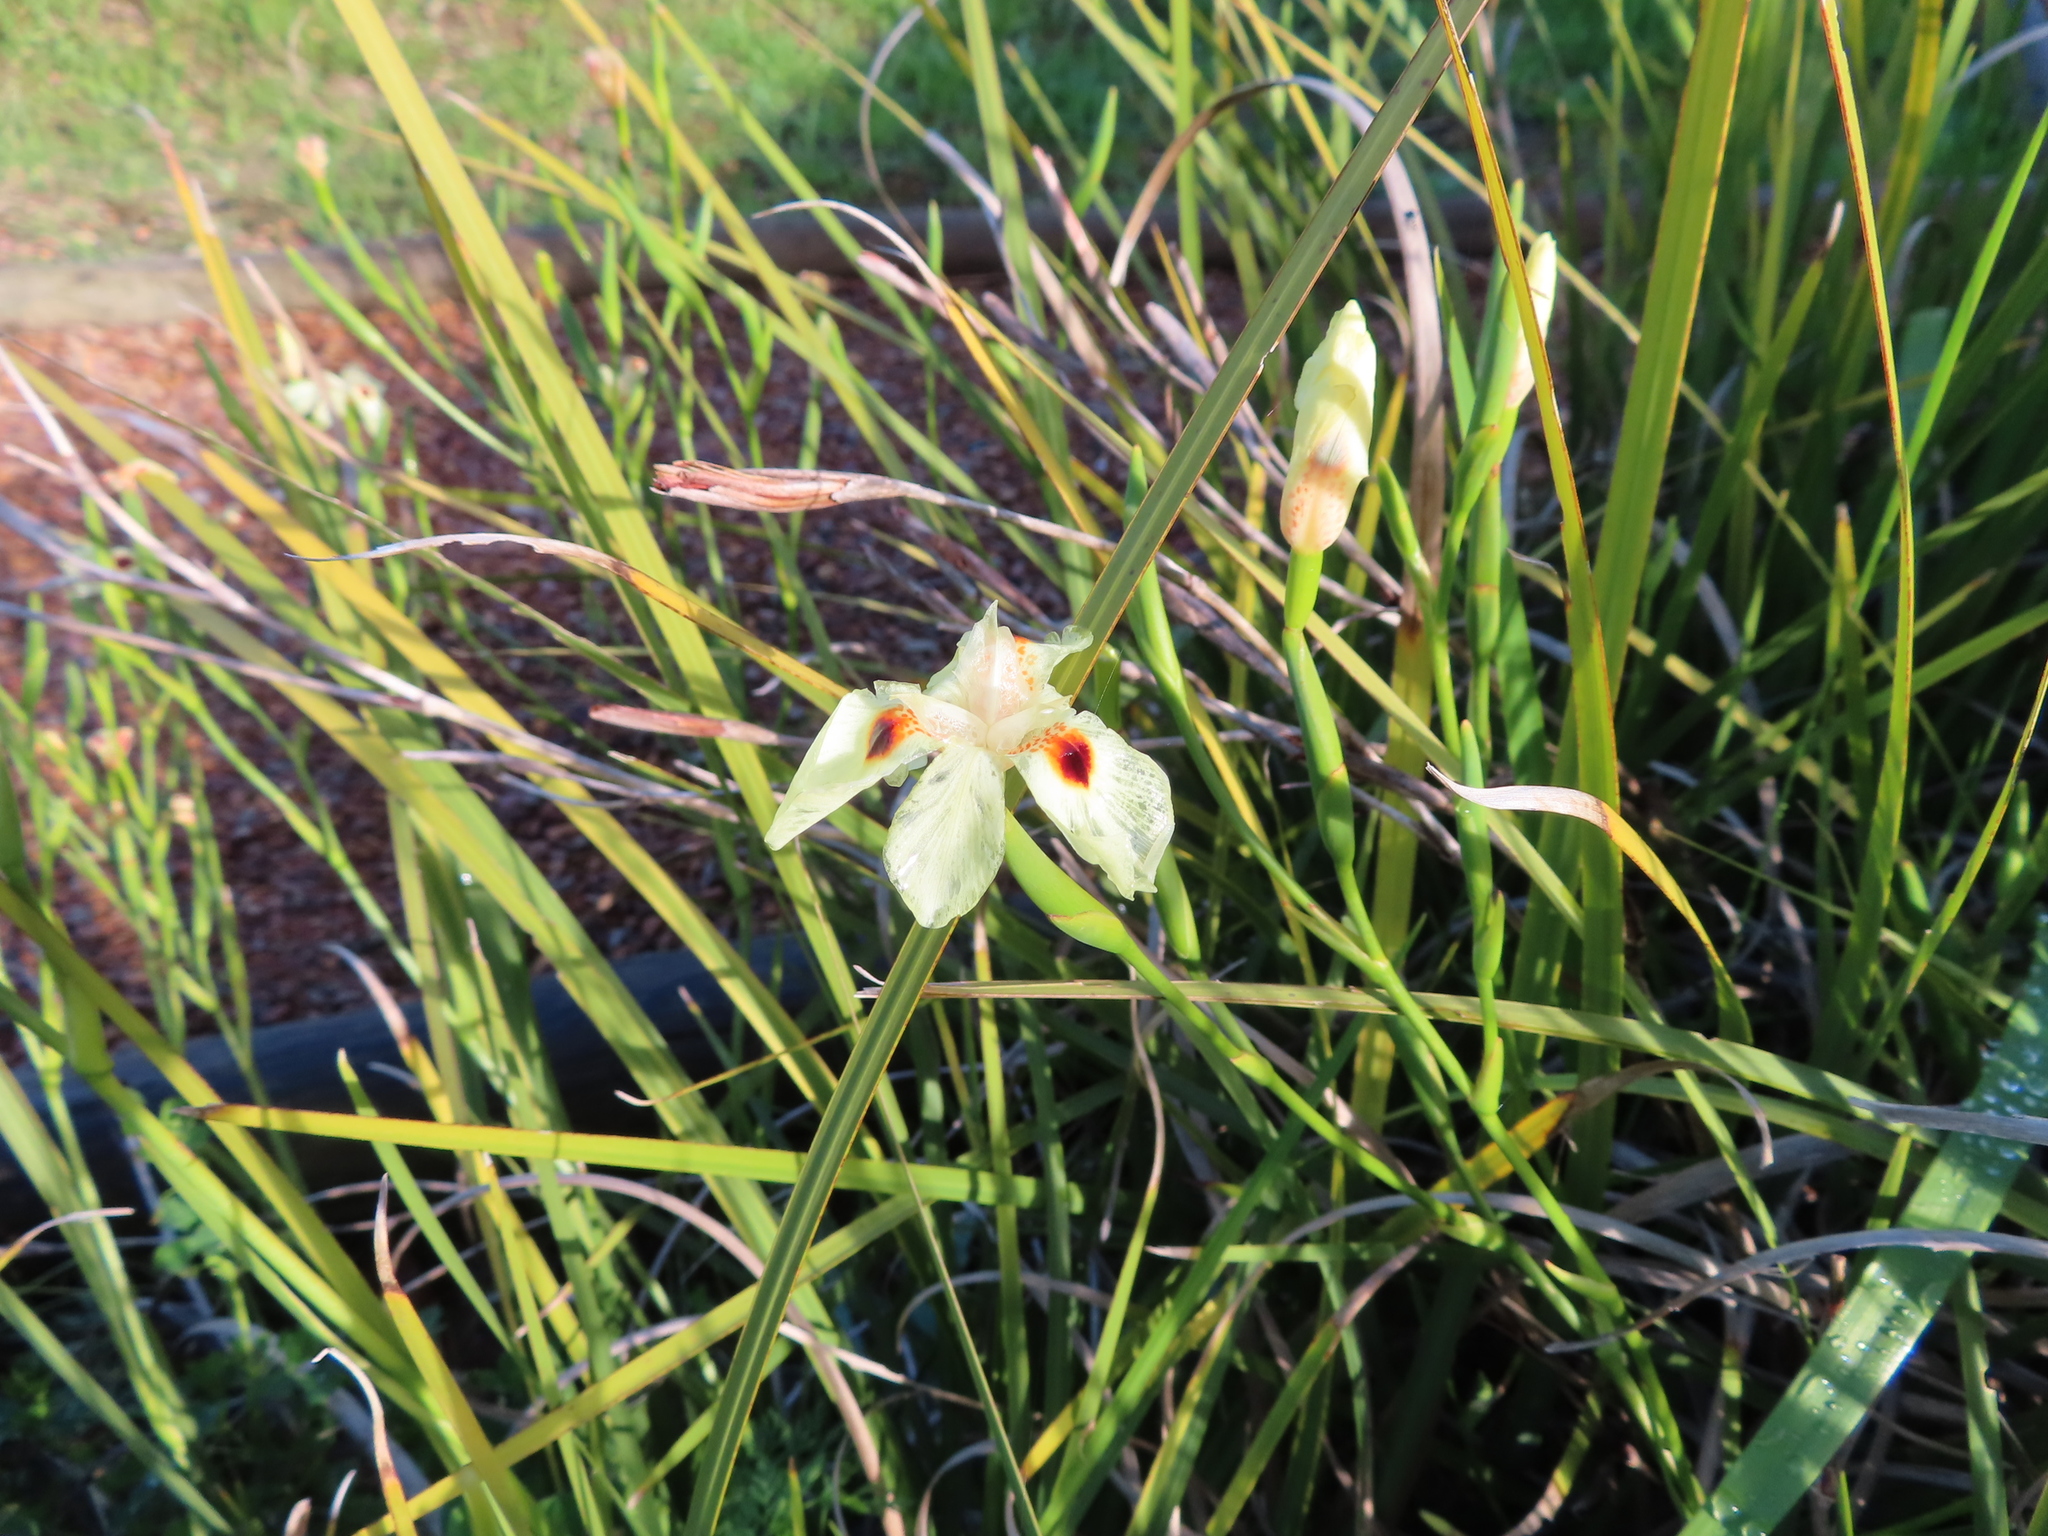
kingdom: Plantae
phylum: Tracheophyta
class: Liliopsida
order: Asparagales
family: Iridaceae
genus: Dietes
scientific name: Dietes bicolor
